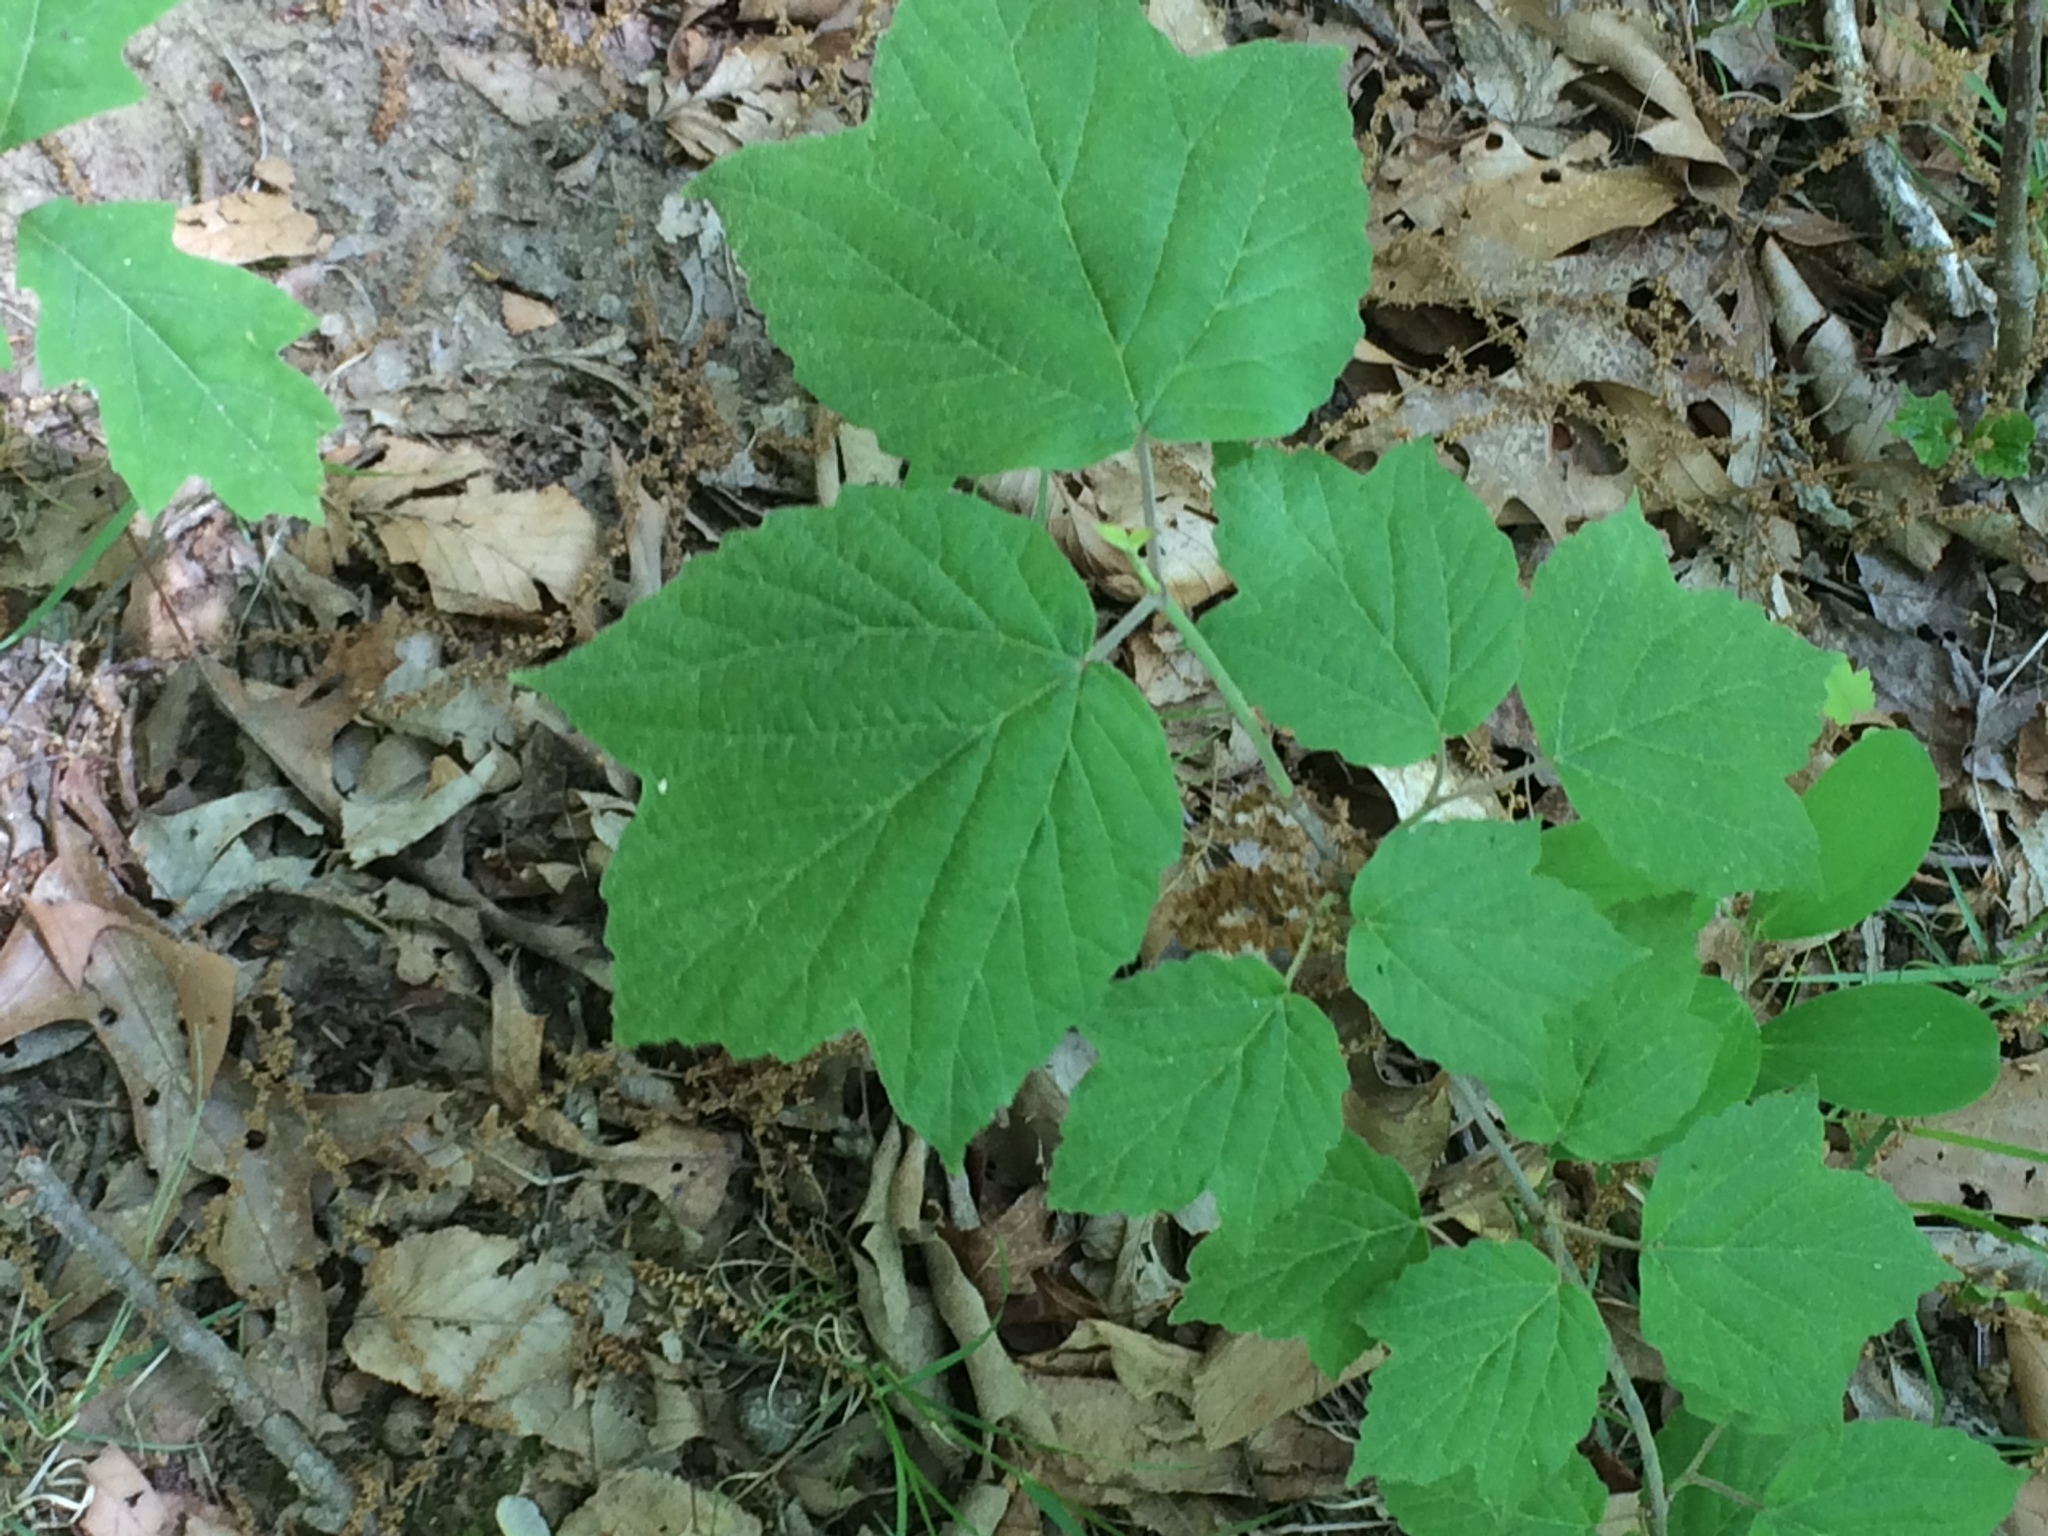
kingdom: Plantae
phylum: Tracheophyta
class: Magnoliopsida
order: Dipsacales
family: Viburnaceae
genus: Viburnum
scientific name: Viburnum acerifolium
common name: Dockmackie
